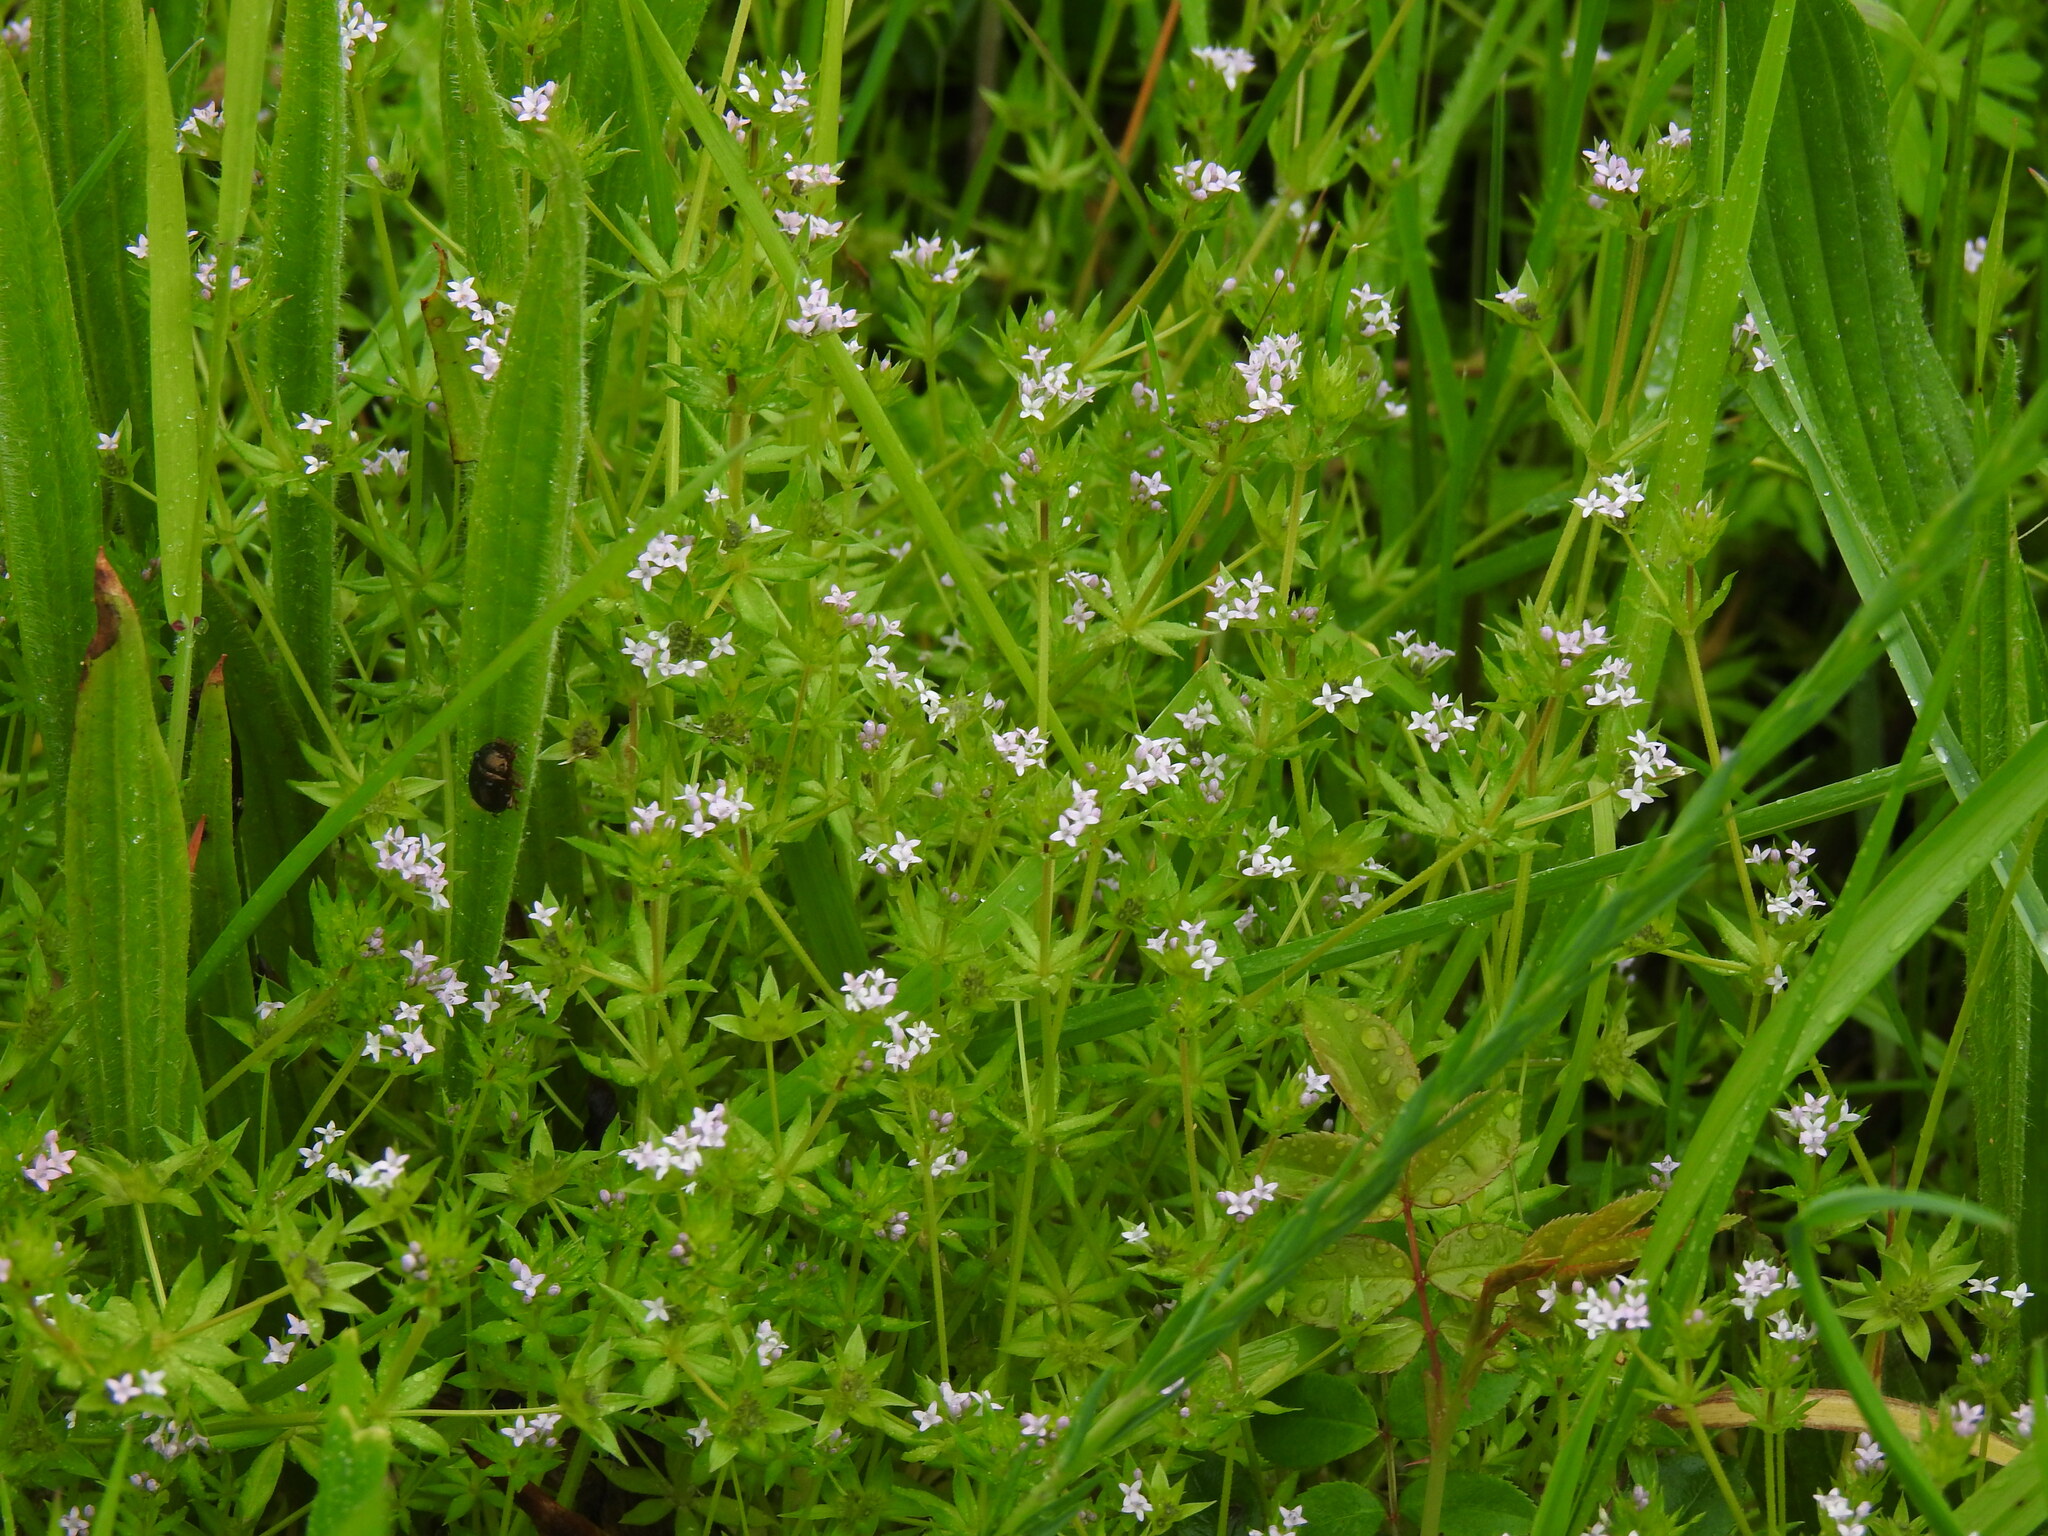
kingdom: Plantae
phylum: Tracheophyta
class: Magnoliopsida
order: Gentianales
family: Rubiaceae
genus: Sherardia
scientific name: Sherardia arvensis
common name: Field madder
